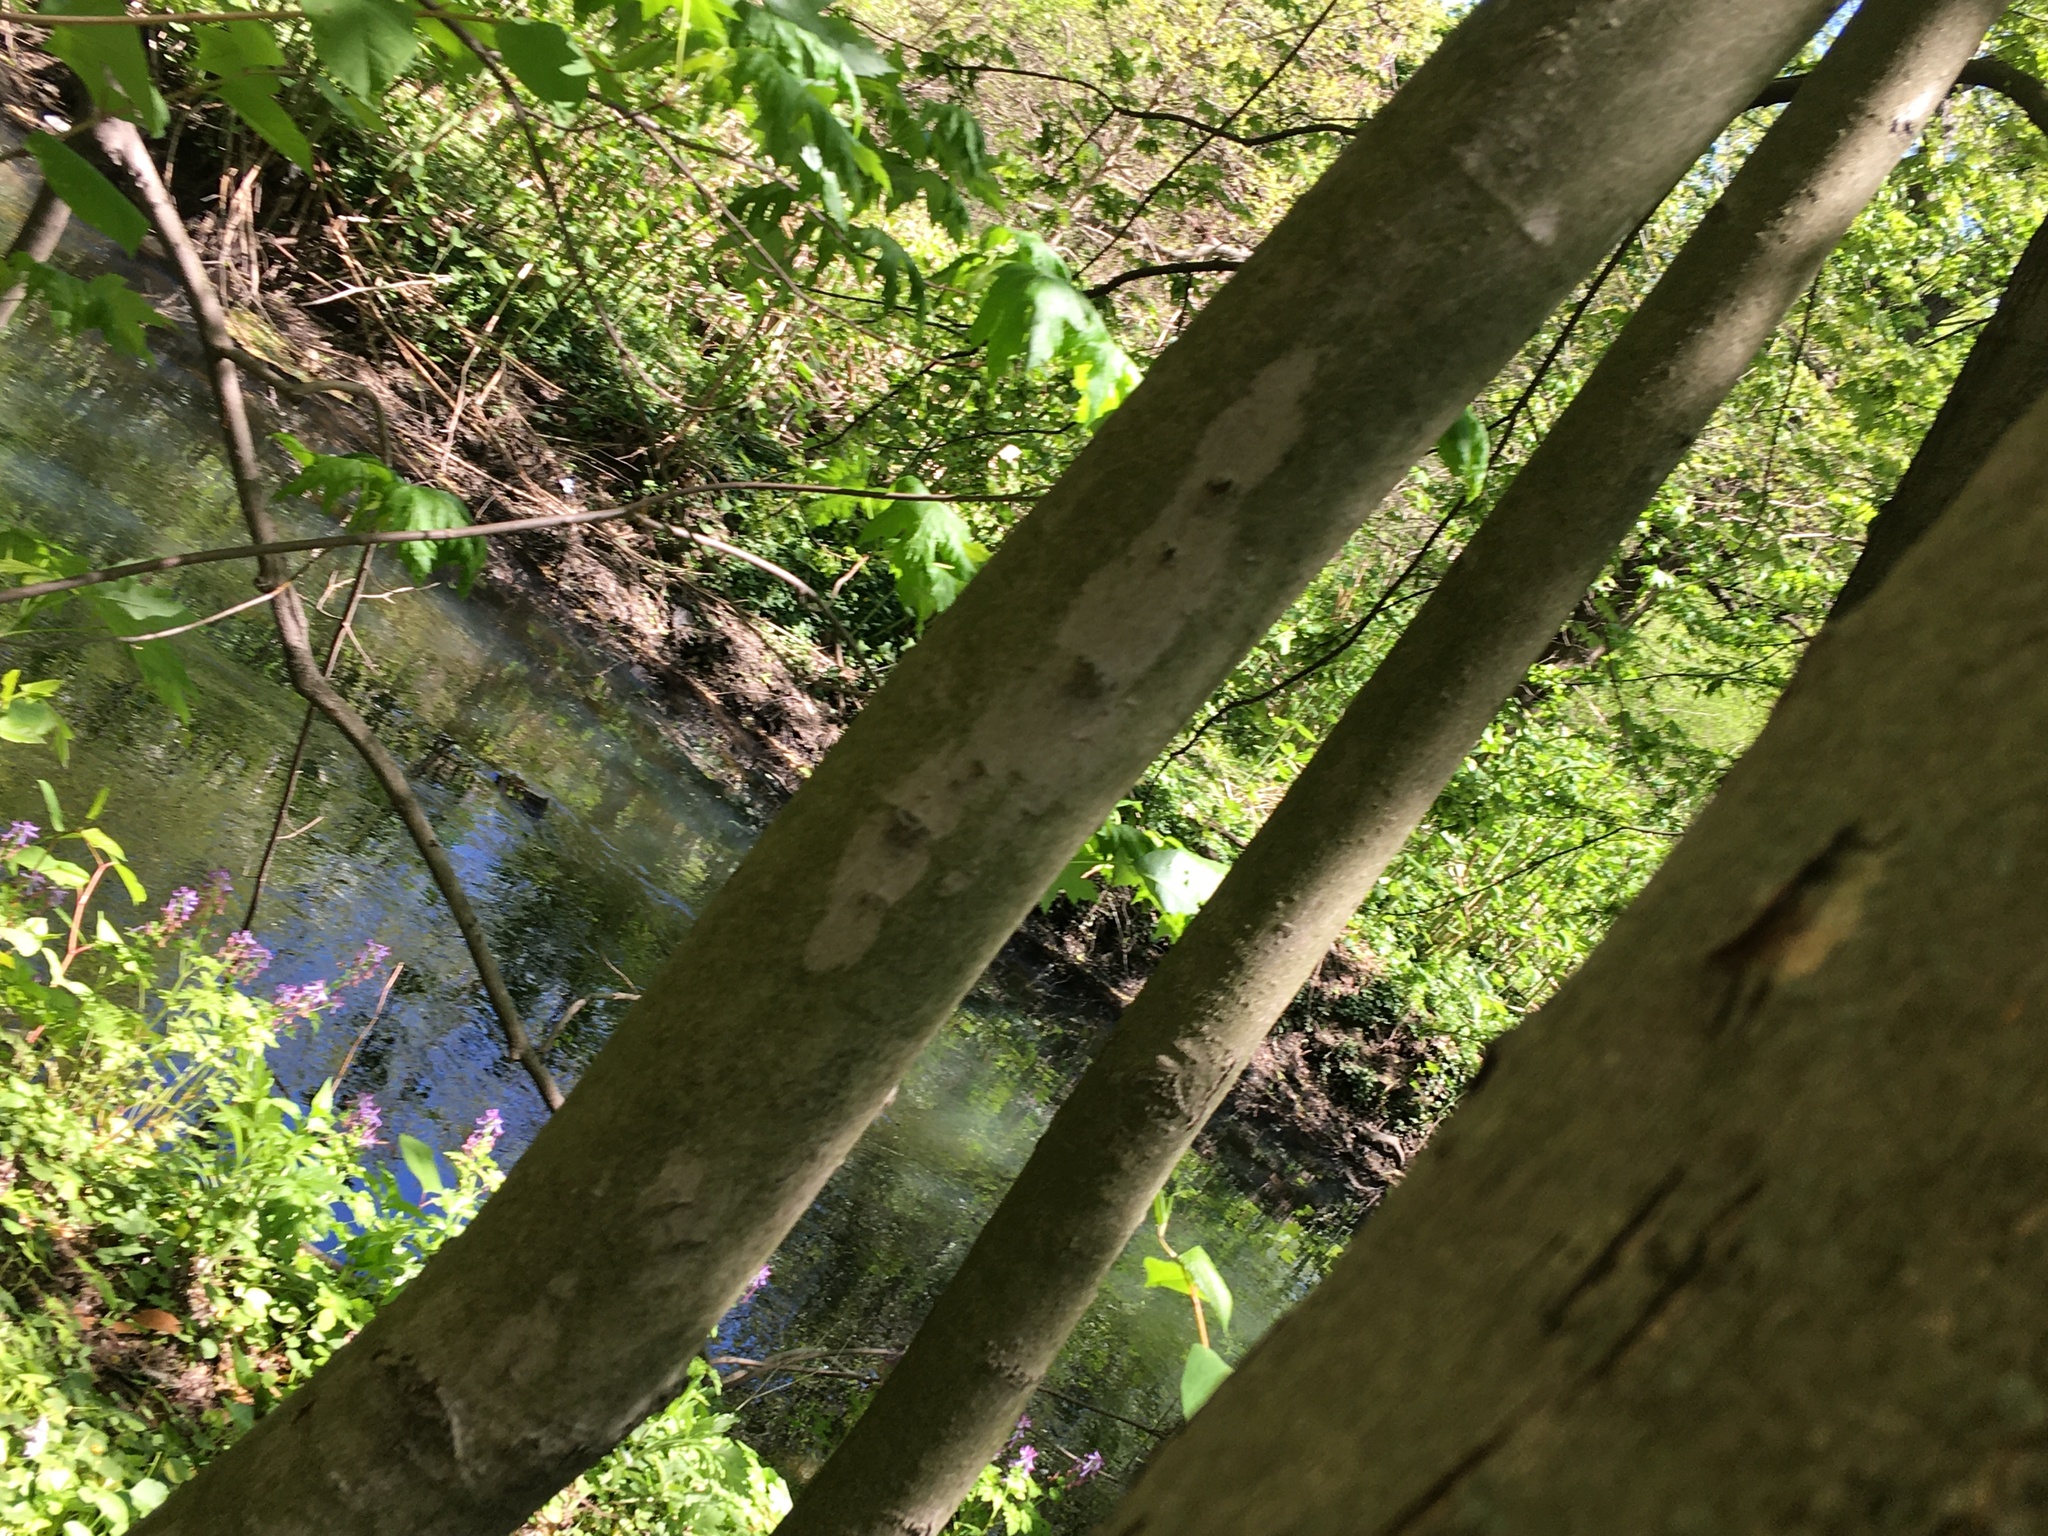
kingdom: Plantae
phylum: Tracheophyta
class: Magnoliopsida
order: Proteales
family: Platanaceae
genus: Platanus
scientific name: Platanus occidentalis
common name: American sycamore
